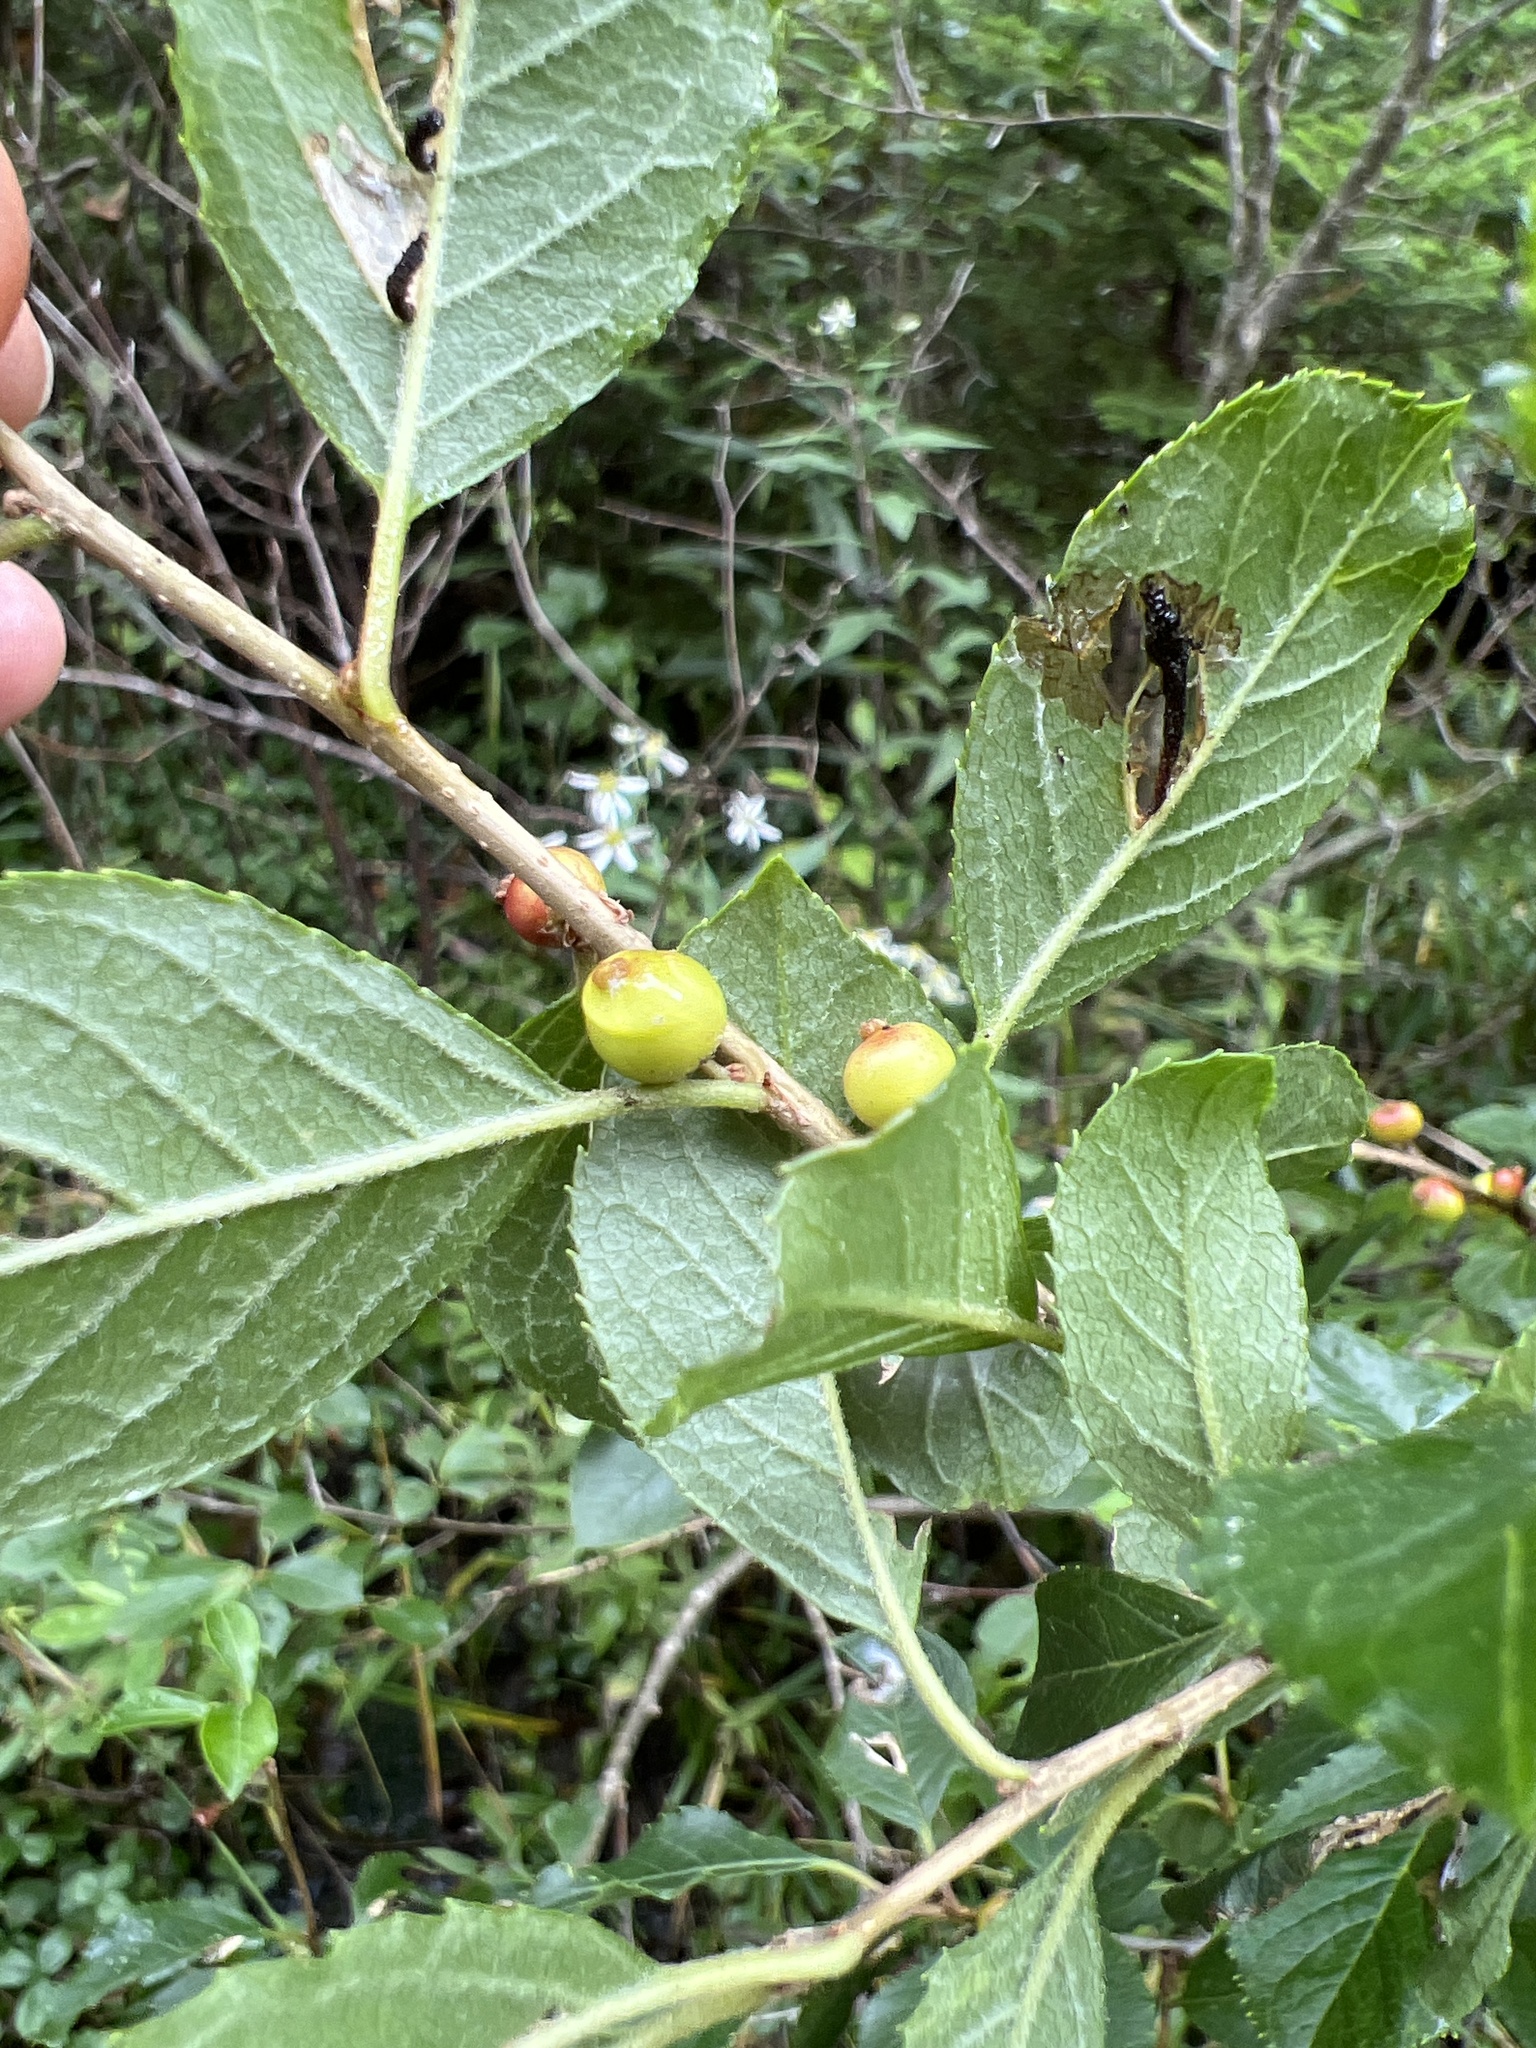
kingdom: Plantae
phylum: Tracheophyta
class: Magnoliopsida
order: Aquifoliales
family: Aquifoliaceae
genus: Ilex
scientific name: Ilex verticillata
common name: Virginia winterberry
